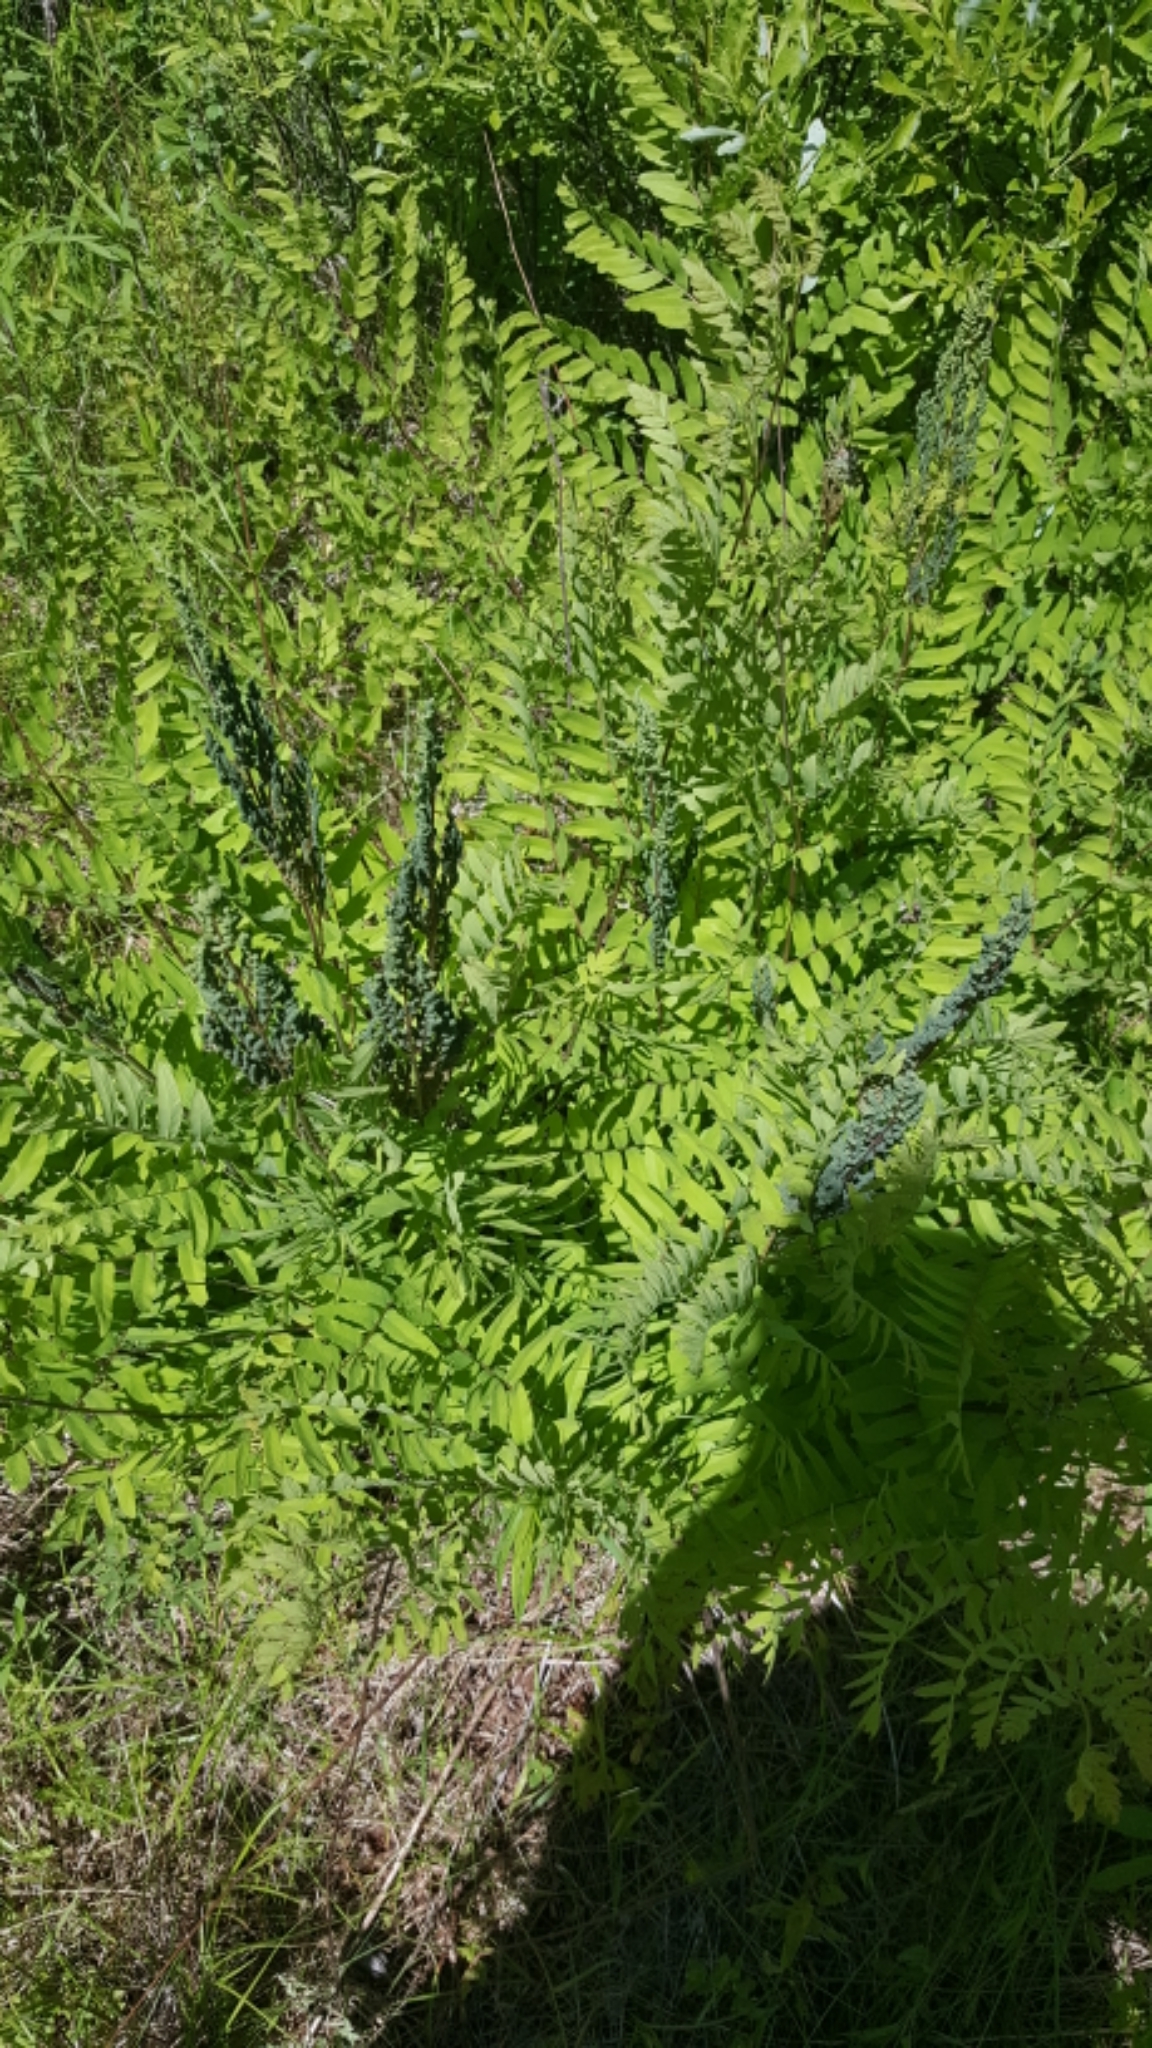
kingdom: Plantae
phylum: Tracheophyta
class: Polypodiopsida
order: Osmundales
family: Osmundaceae
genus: Osmunda
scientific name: Osmunda spectabilis
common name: American royal fern
